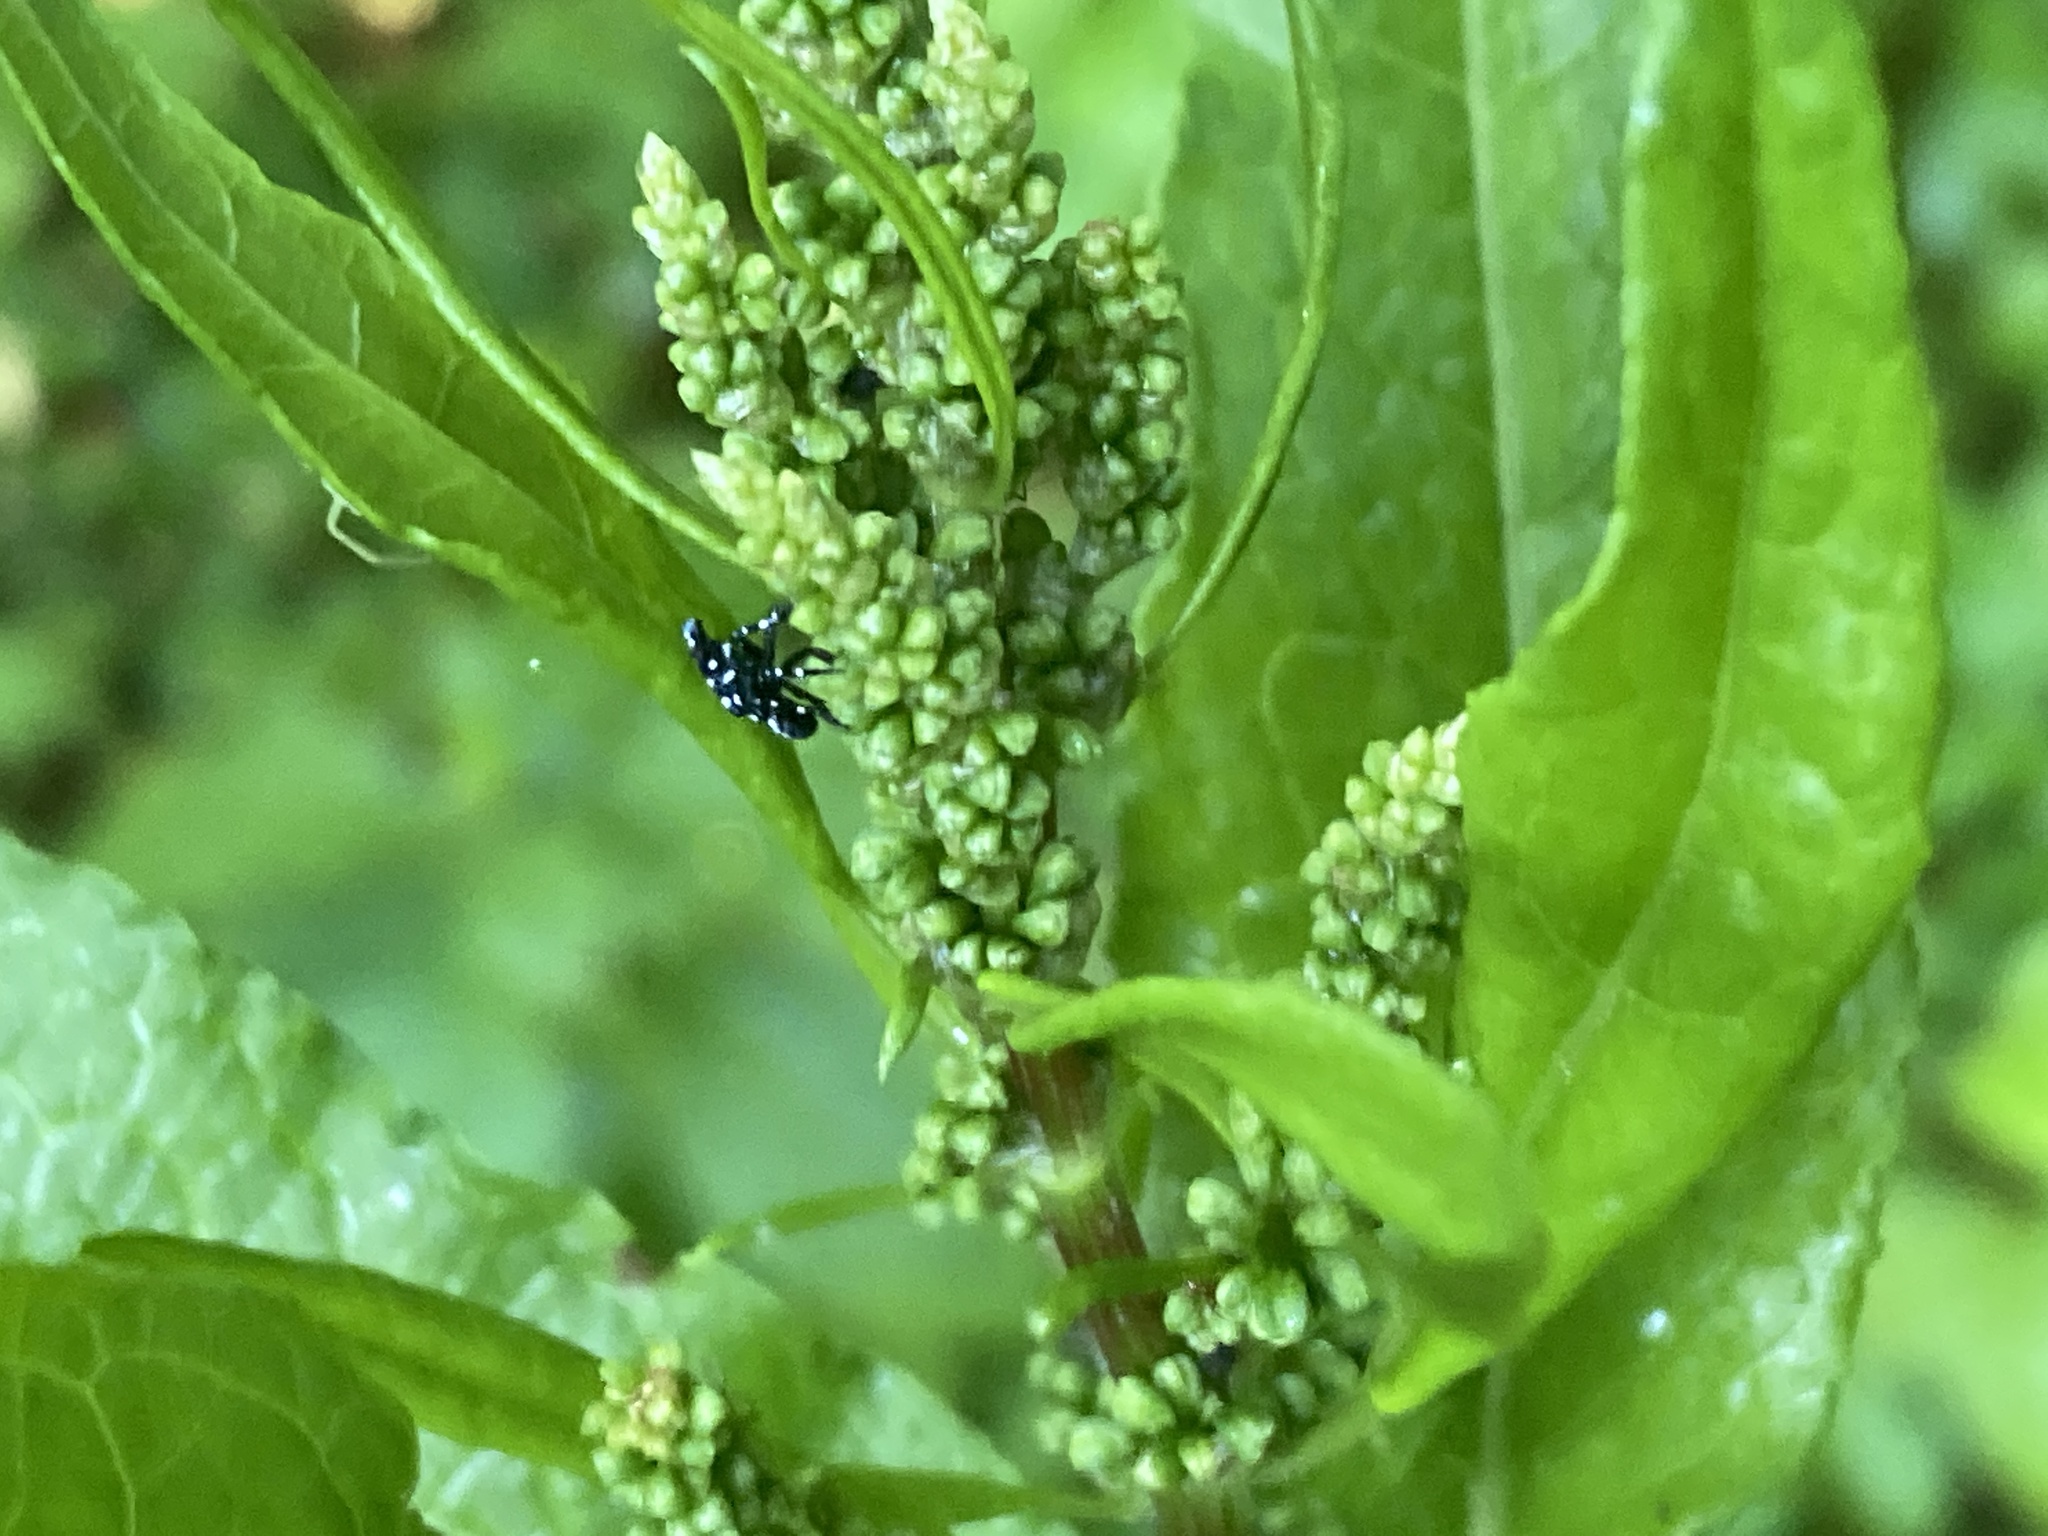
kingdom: Animalia
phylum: Arthropoda
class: Insecta
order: Hemiptera
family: Fulgoridae
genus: Lycorma
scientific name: Lycorma delicatula
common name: Spotted lanternfly
